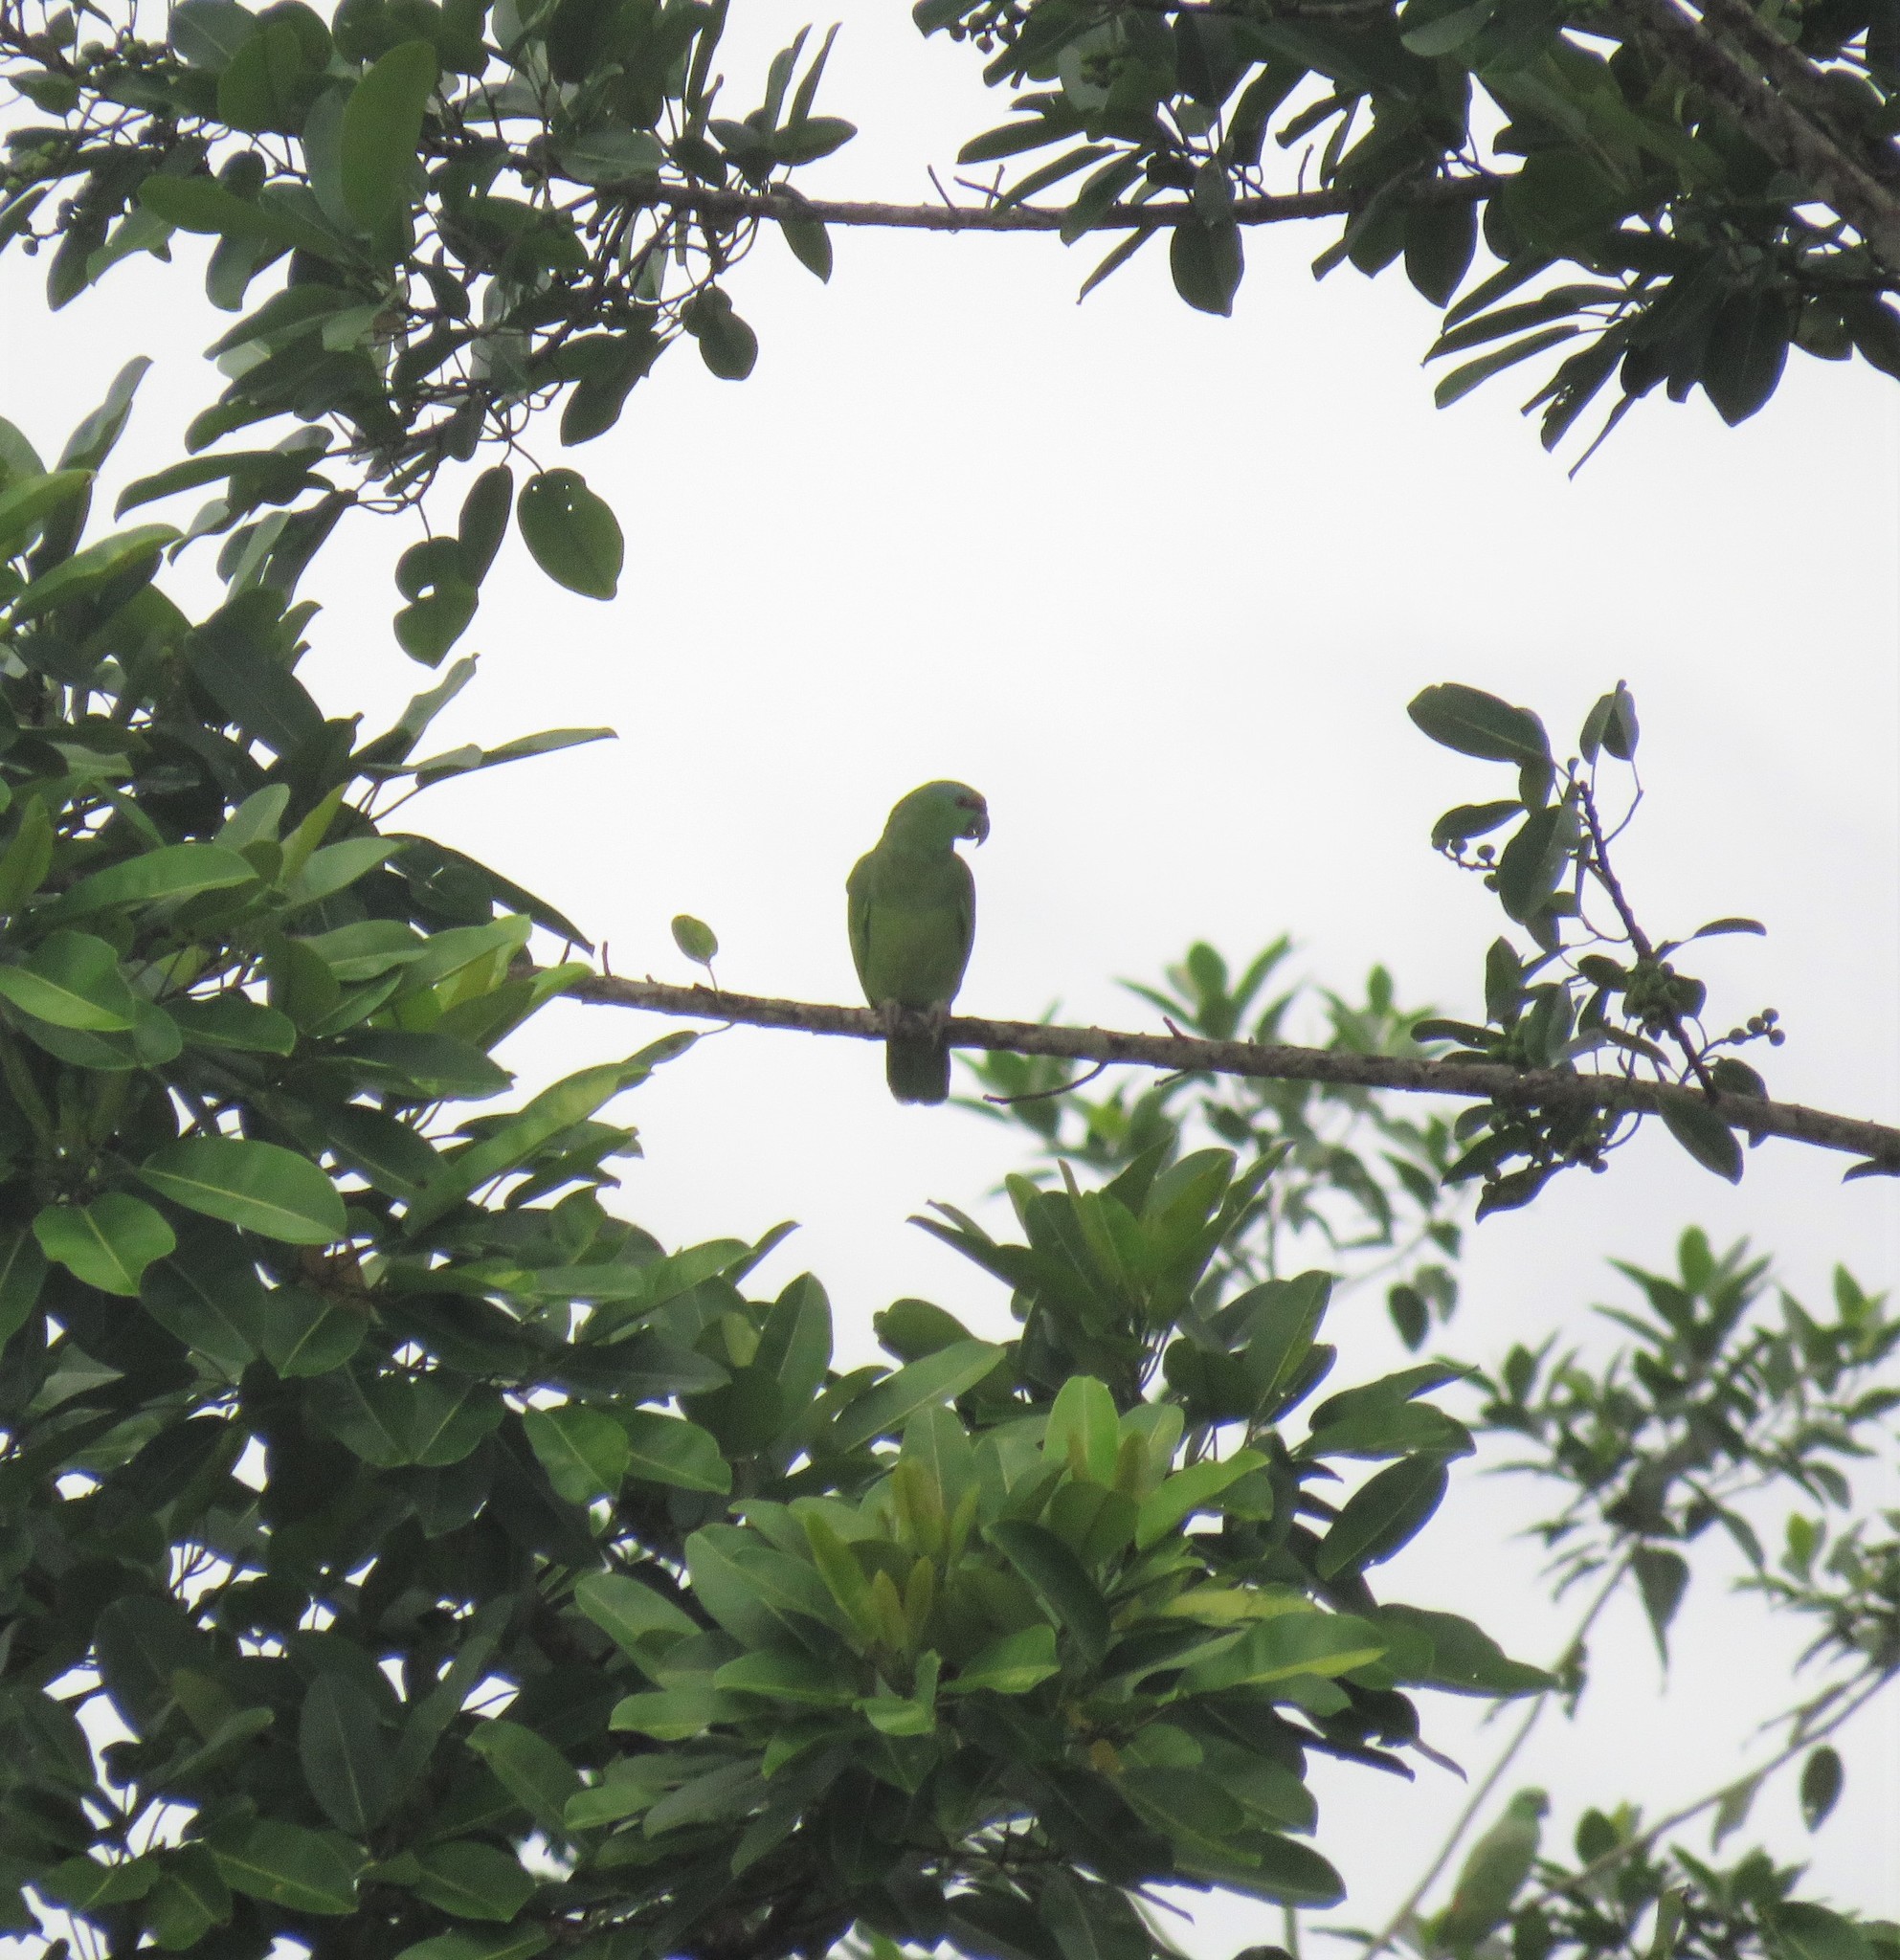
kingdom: Animalia
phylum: Chordata
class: Aves
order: Psittaciformes
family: Psittacidae
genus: Amazona
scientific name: Amazona festiva
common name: Festive amazon
